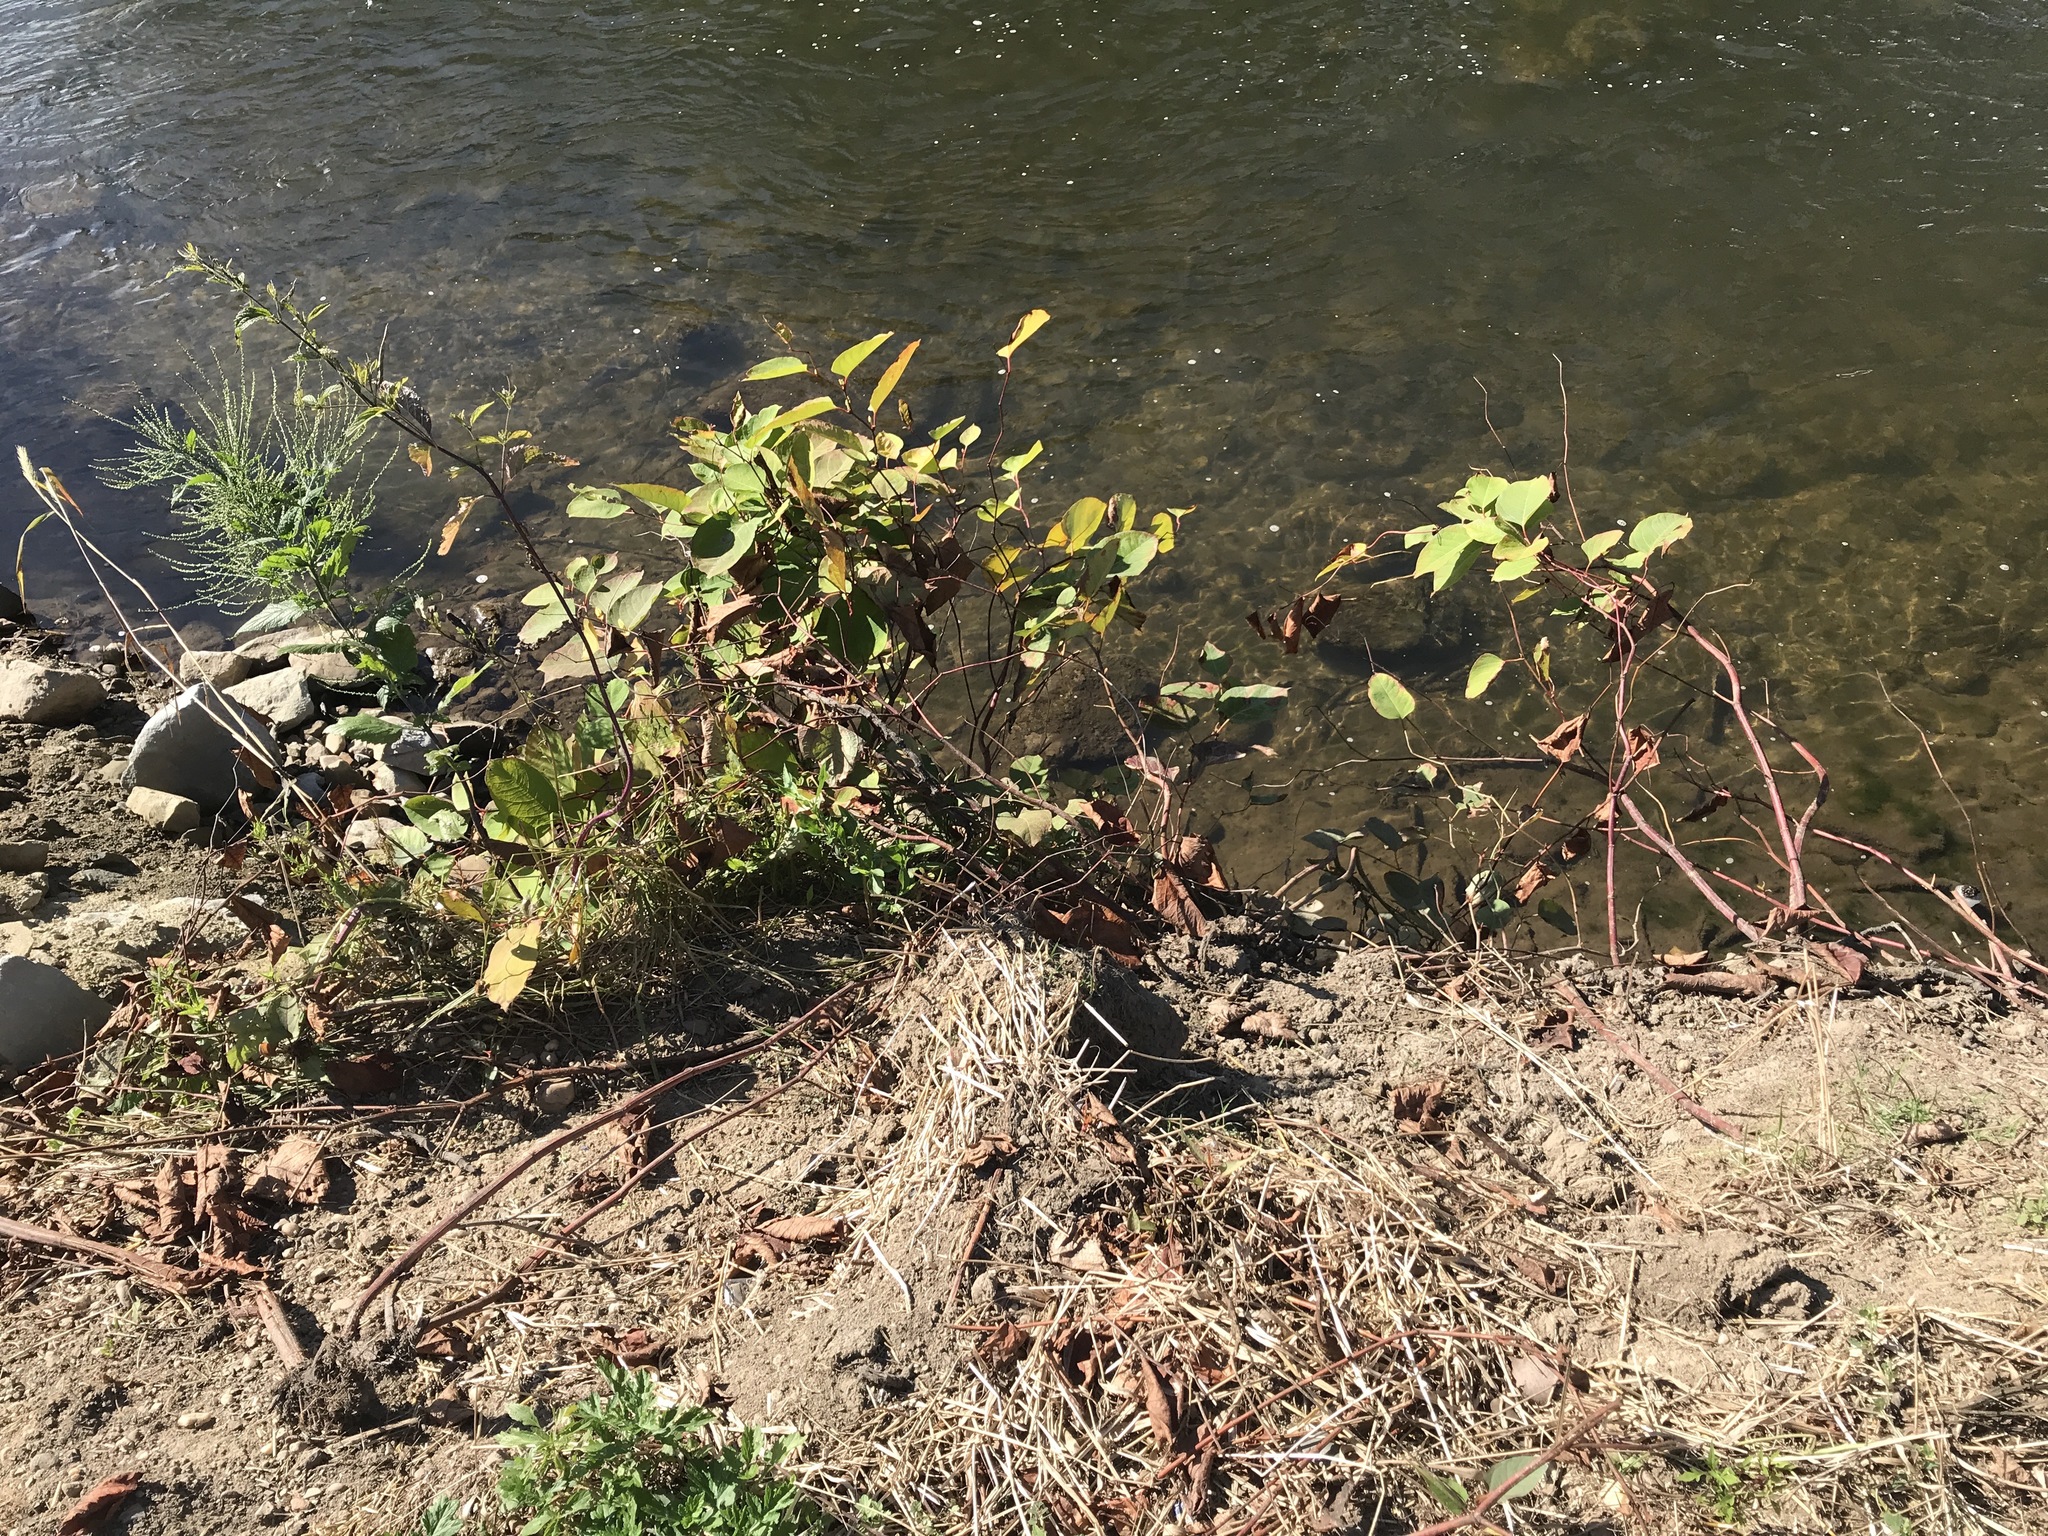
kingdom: Plantae
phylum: Tracheophyta
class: Magnoliopsida
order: Caryophyllales
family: Polygonaceae
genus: Reynoutria
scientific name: Reynoutria japonica
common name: Japanese knotweed
